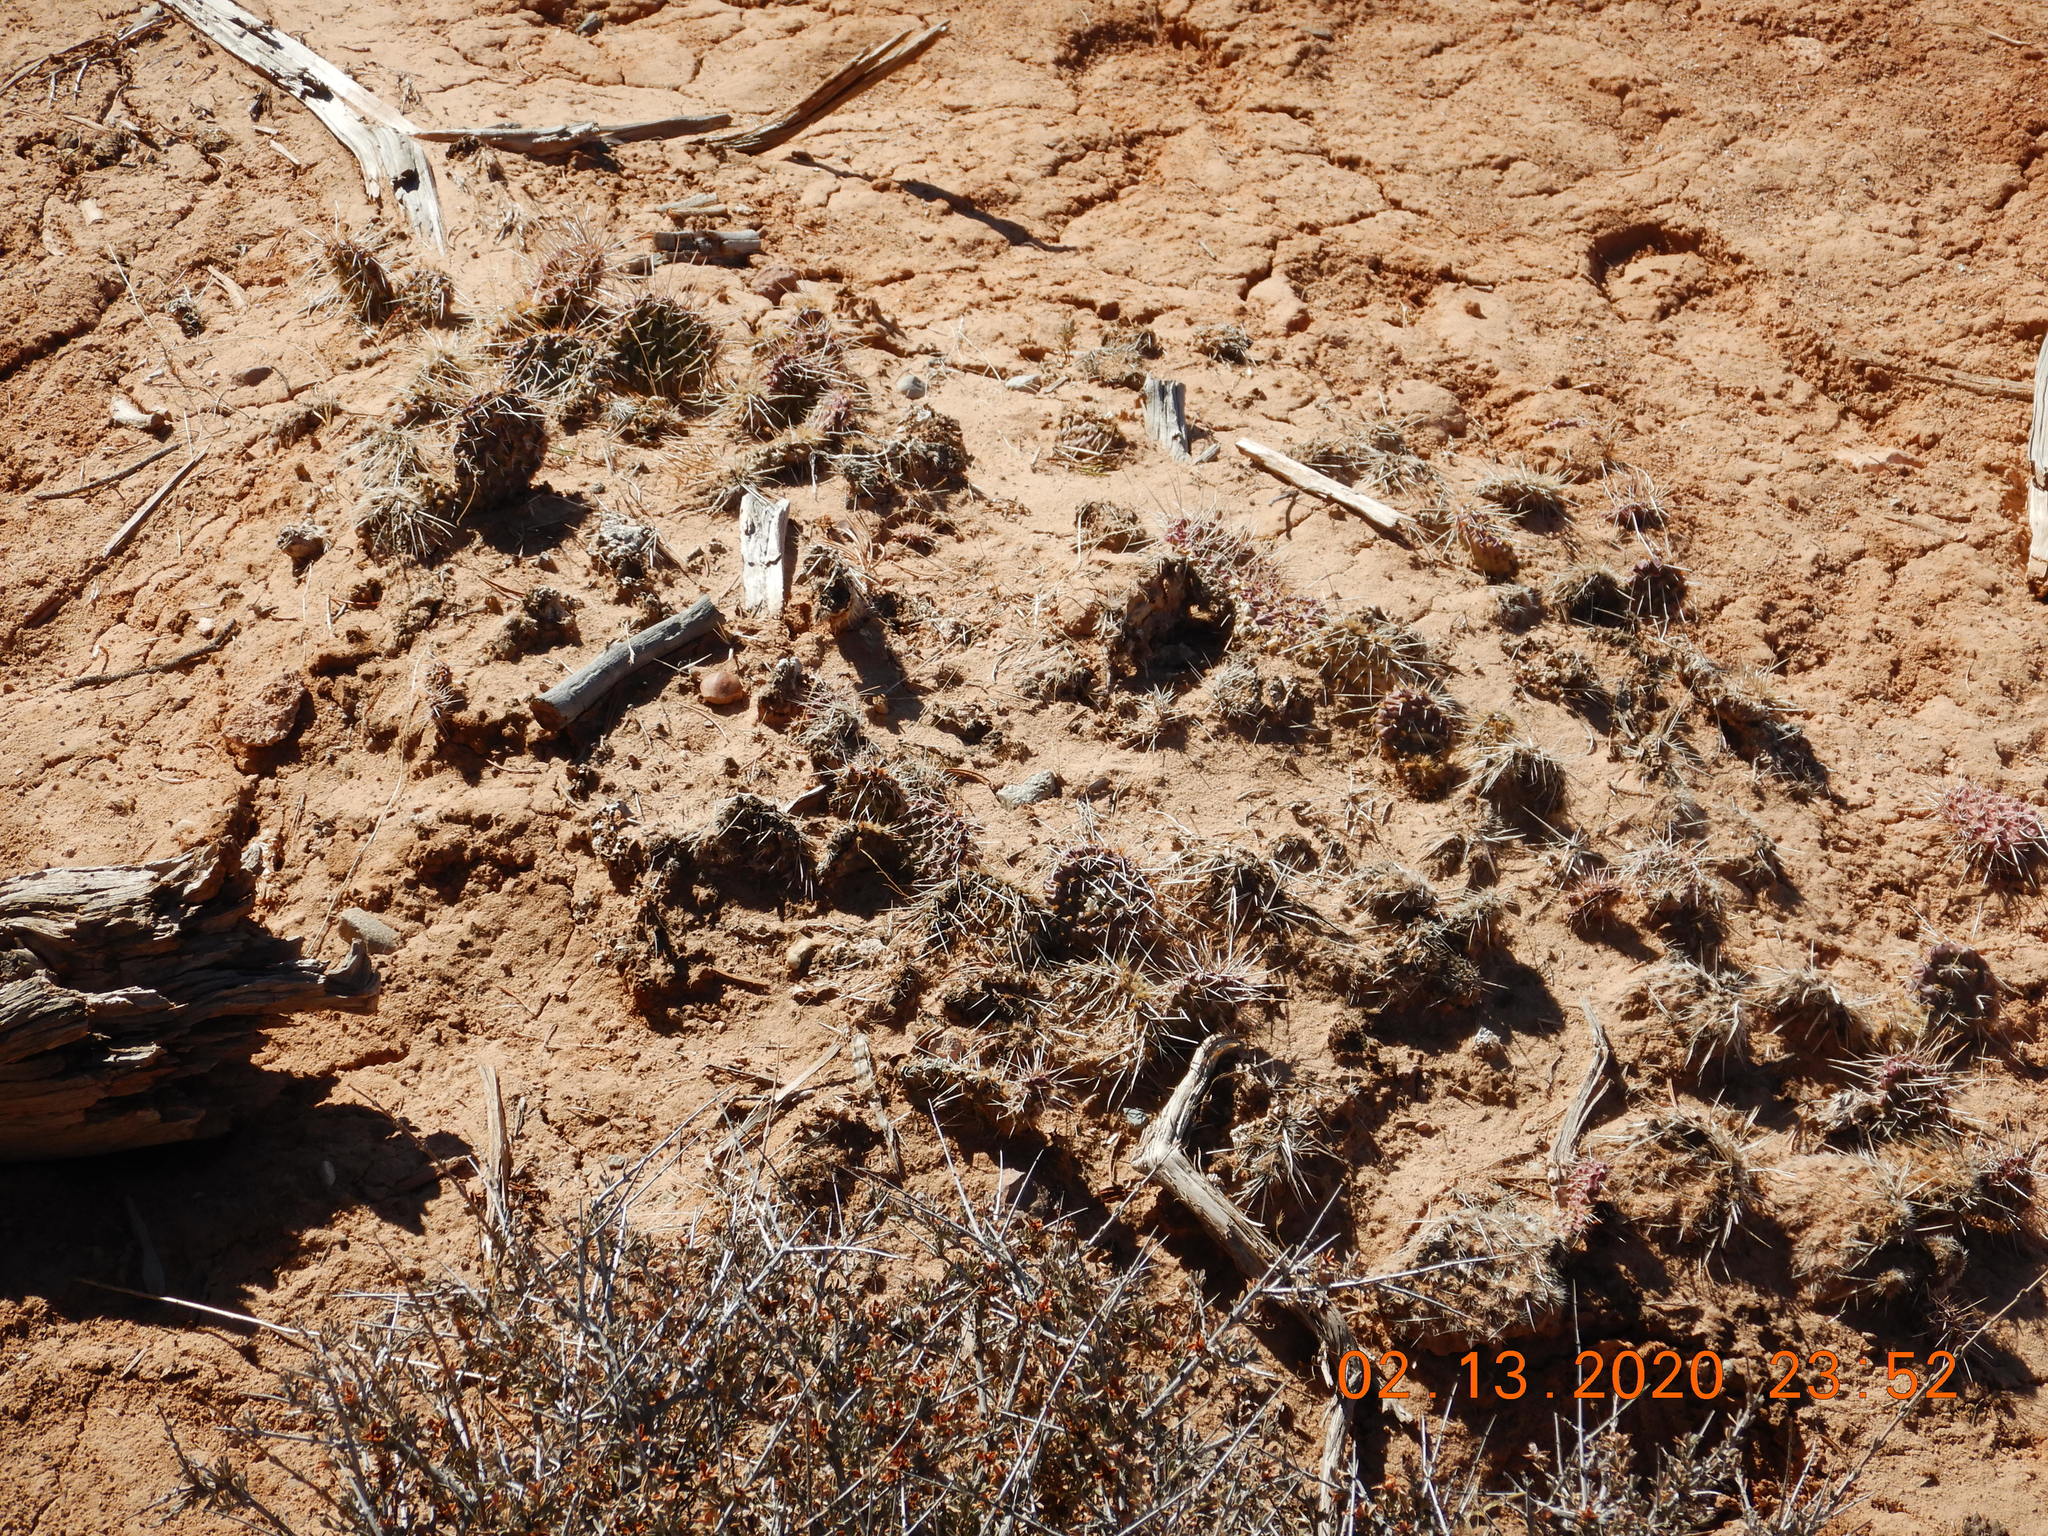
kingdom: Plantae
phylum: Tracheophyta
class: Magnoliopsida
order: Caryophyllales
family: Cactaceae
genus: Opuntia
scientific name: Opuntia polyacantha
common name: Plains prickly-pear
